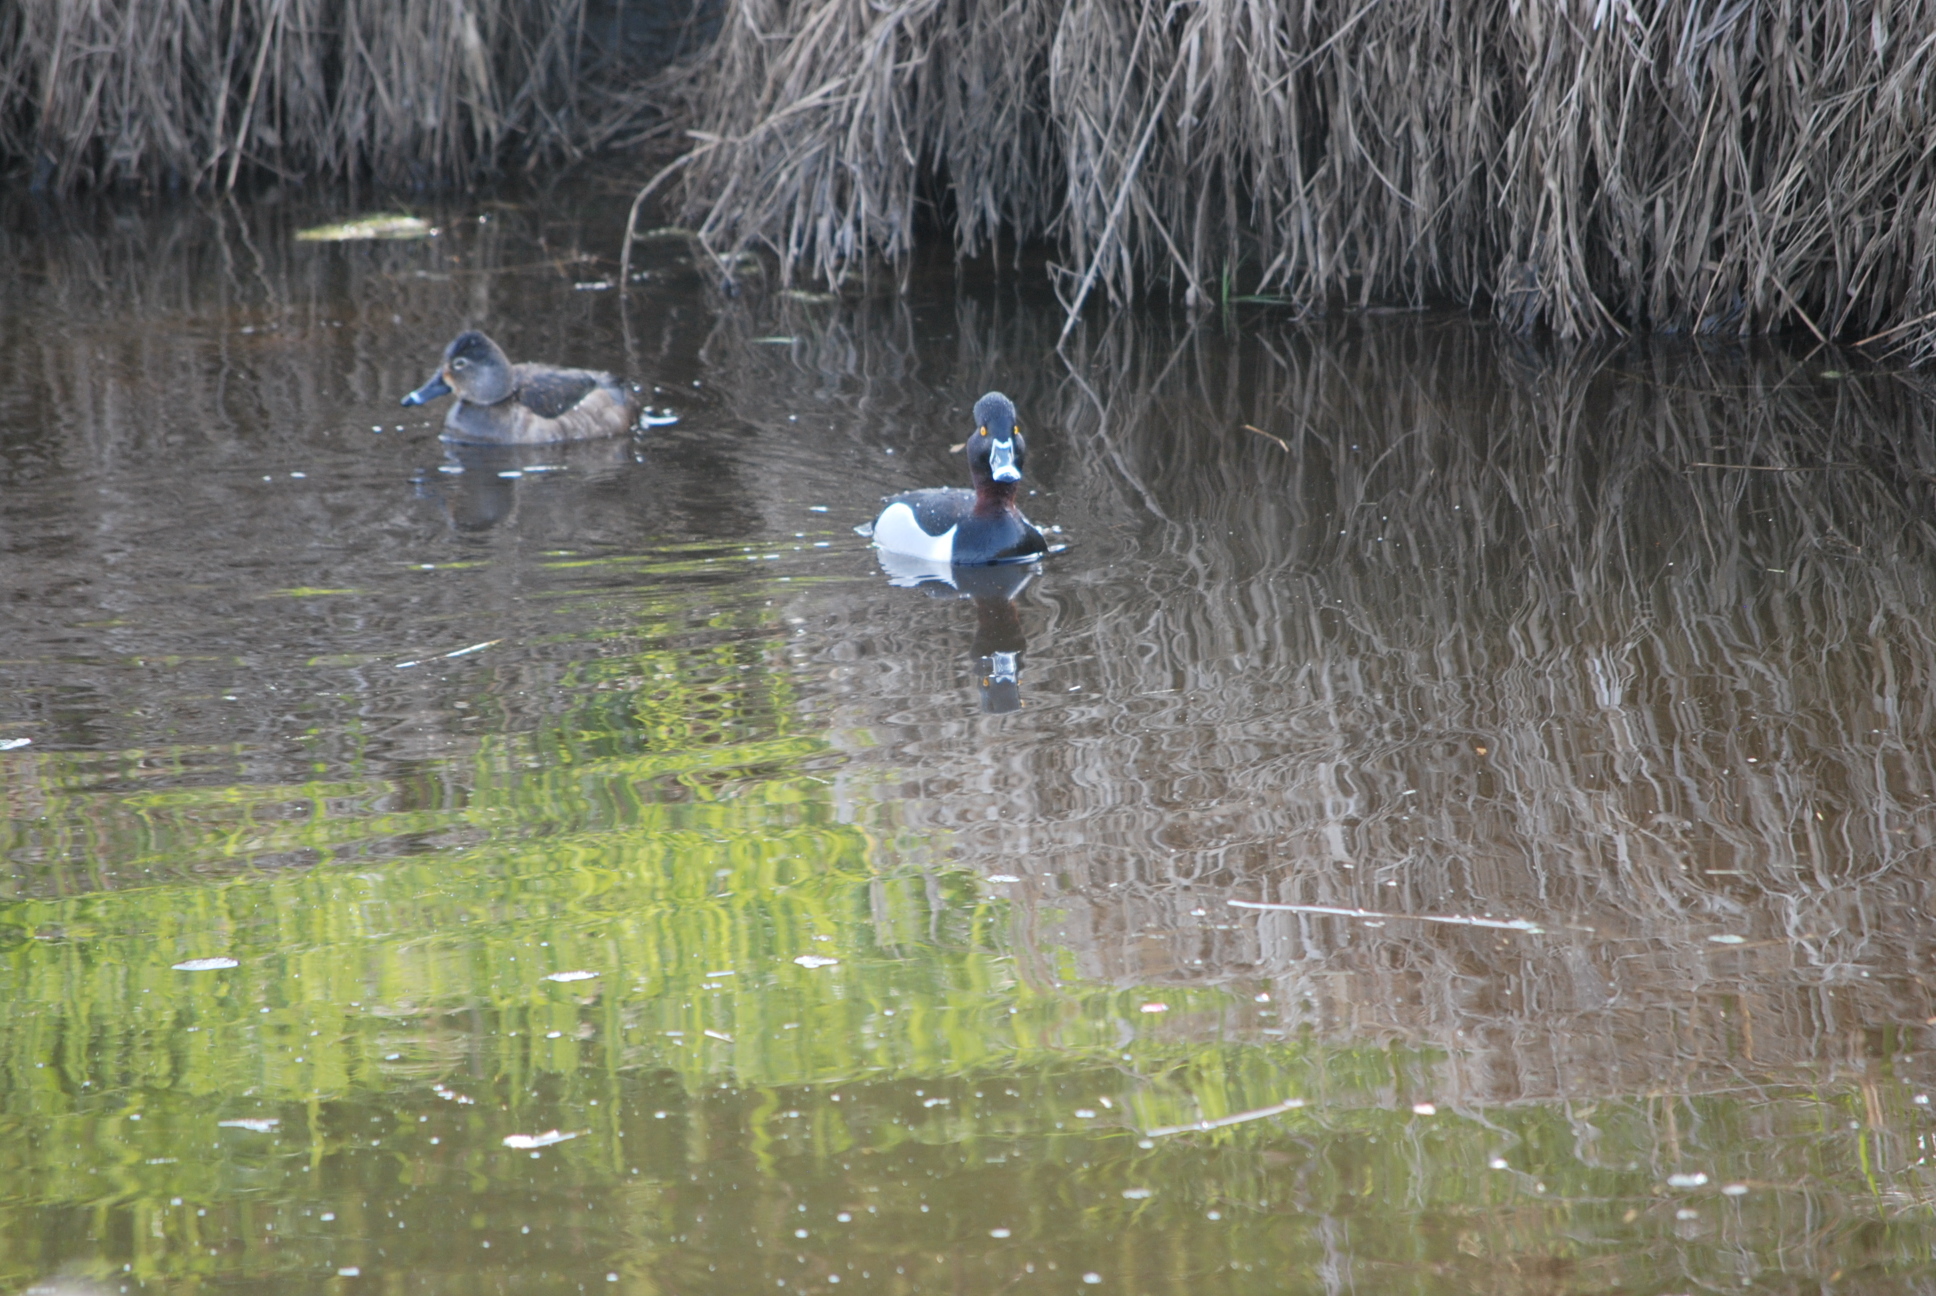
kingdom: Animalia
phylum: Chordata
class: Aves
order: Anseriformes
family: Anatidae
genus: Aythya
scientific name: Aythya collaris
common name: Ring-necked duck
